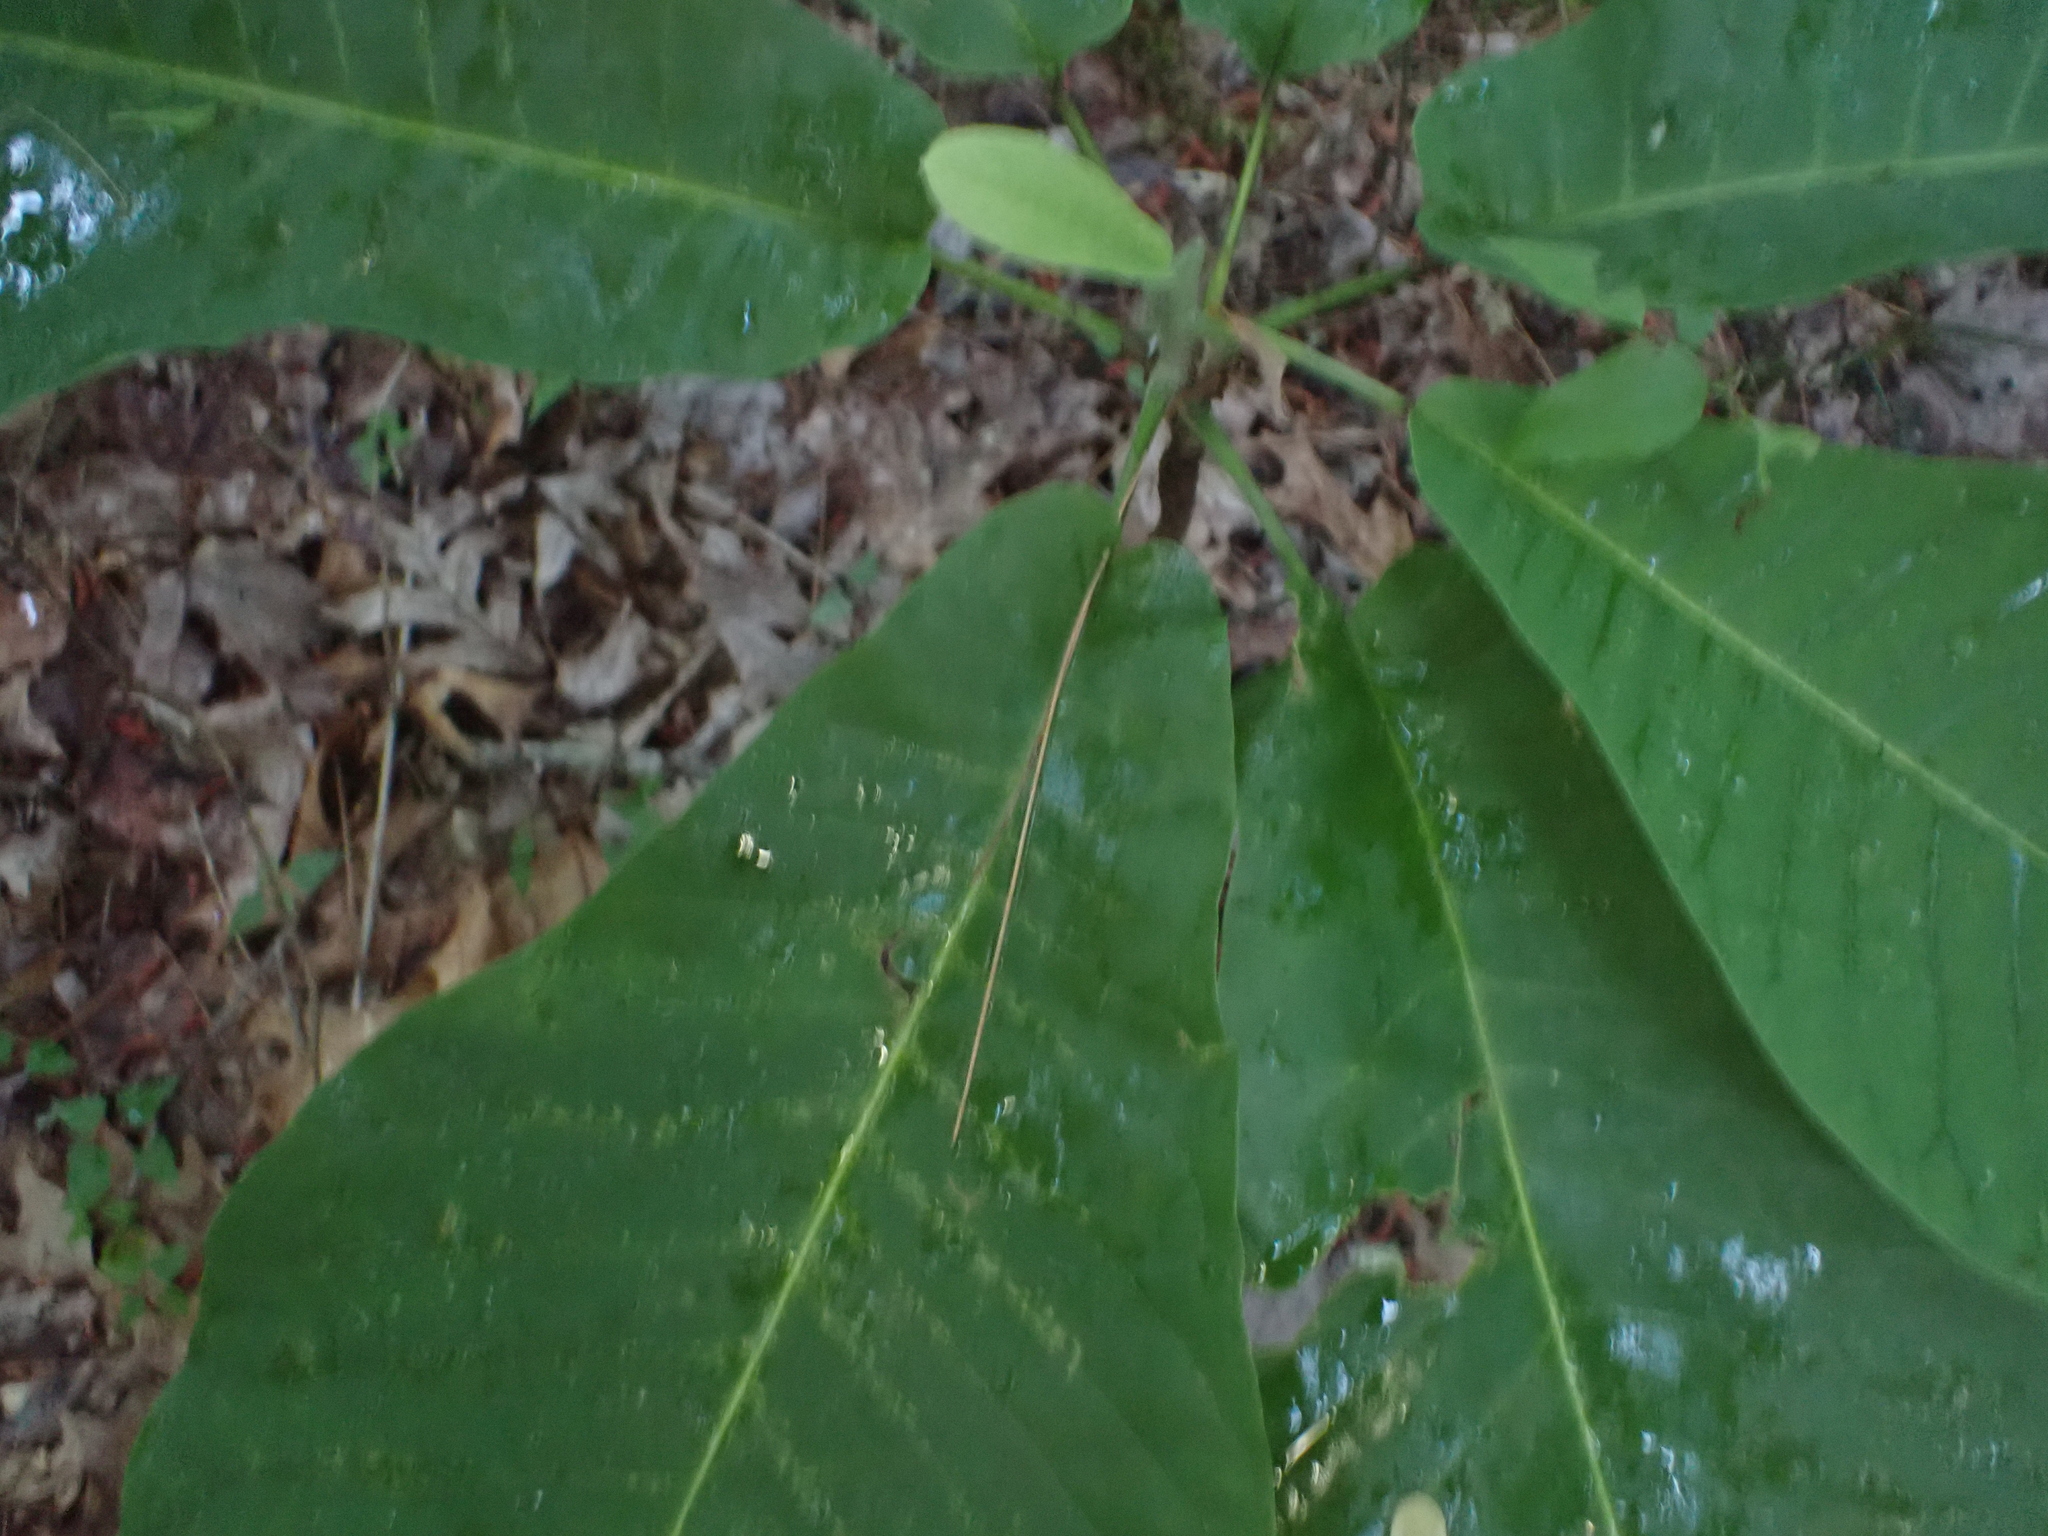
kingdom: Plantae
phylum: Tracheophyta
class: Magnoliopsida
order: Magnoliales
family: Magnoliaceae
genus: Magnolia
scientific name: Magnolia macrophylla
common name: Big-leaf magnolia
